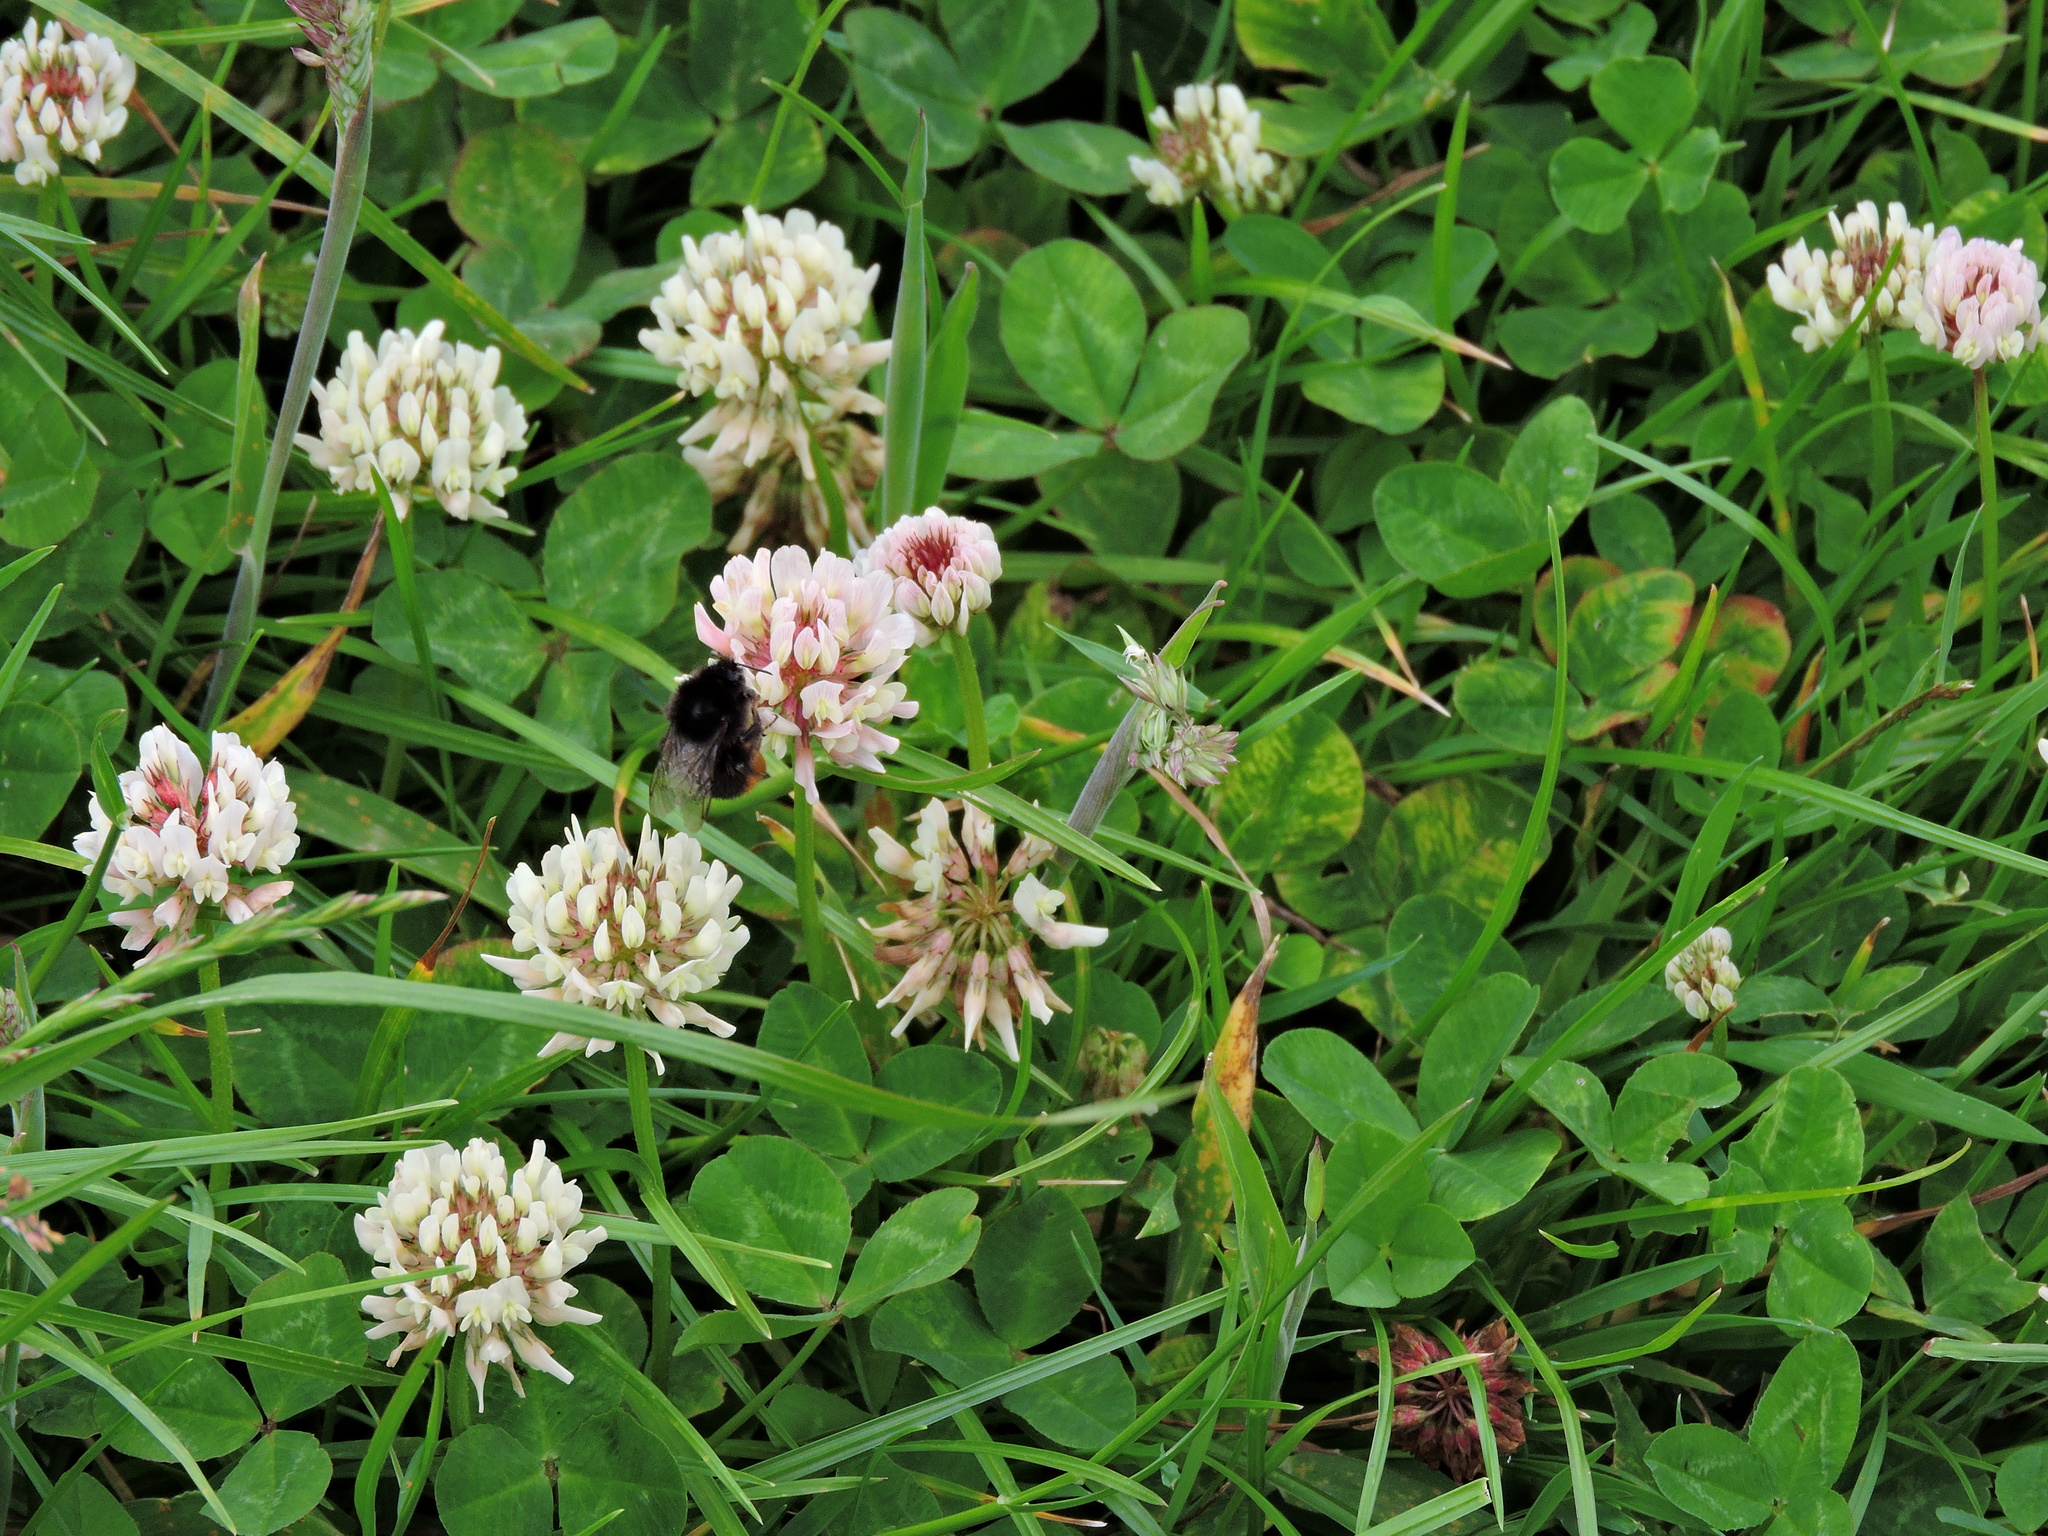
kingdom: Plantae
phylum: Tracheophyta
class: Magnoliopsida
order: Fabales
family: Fabaceae
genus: Trifolium
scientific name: Trifolium repens
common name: White clover
